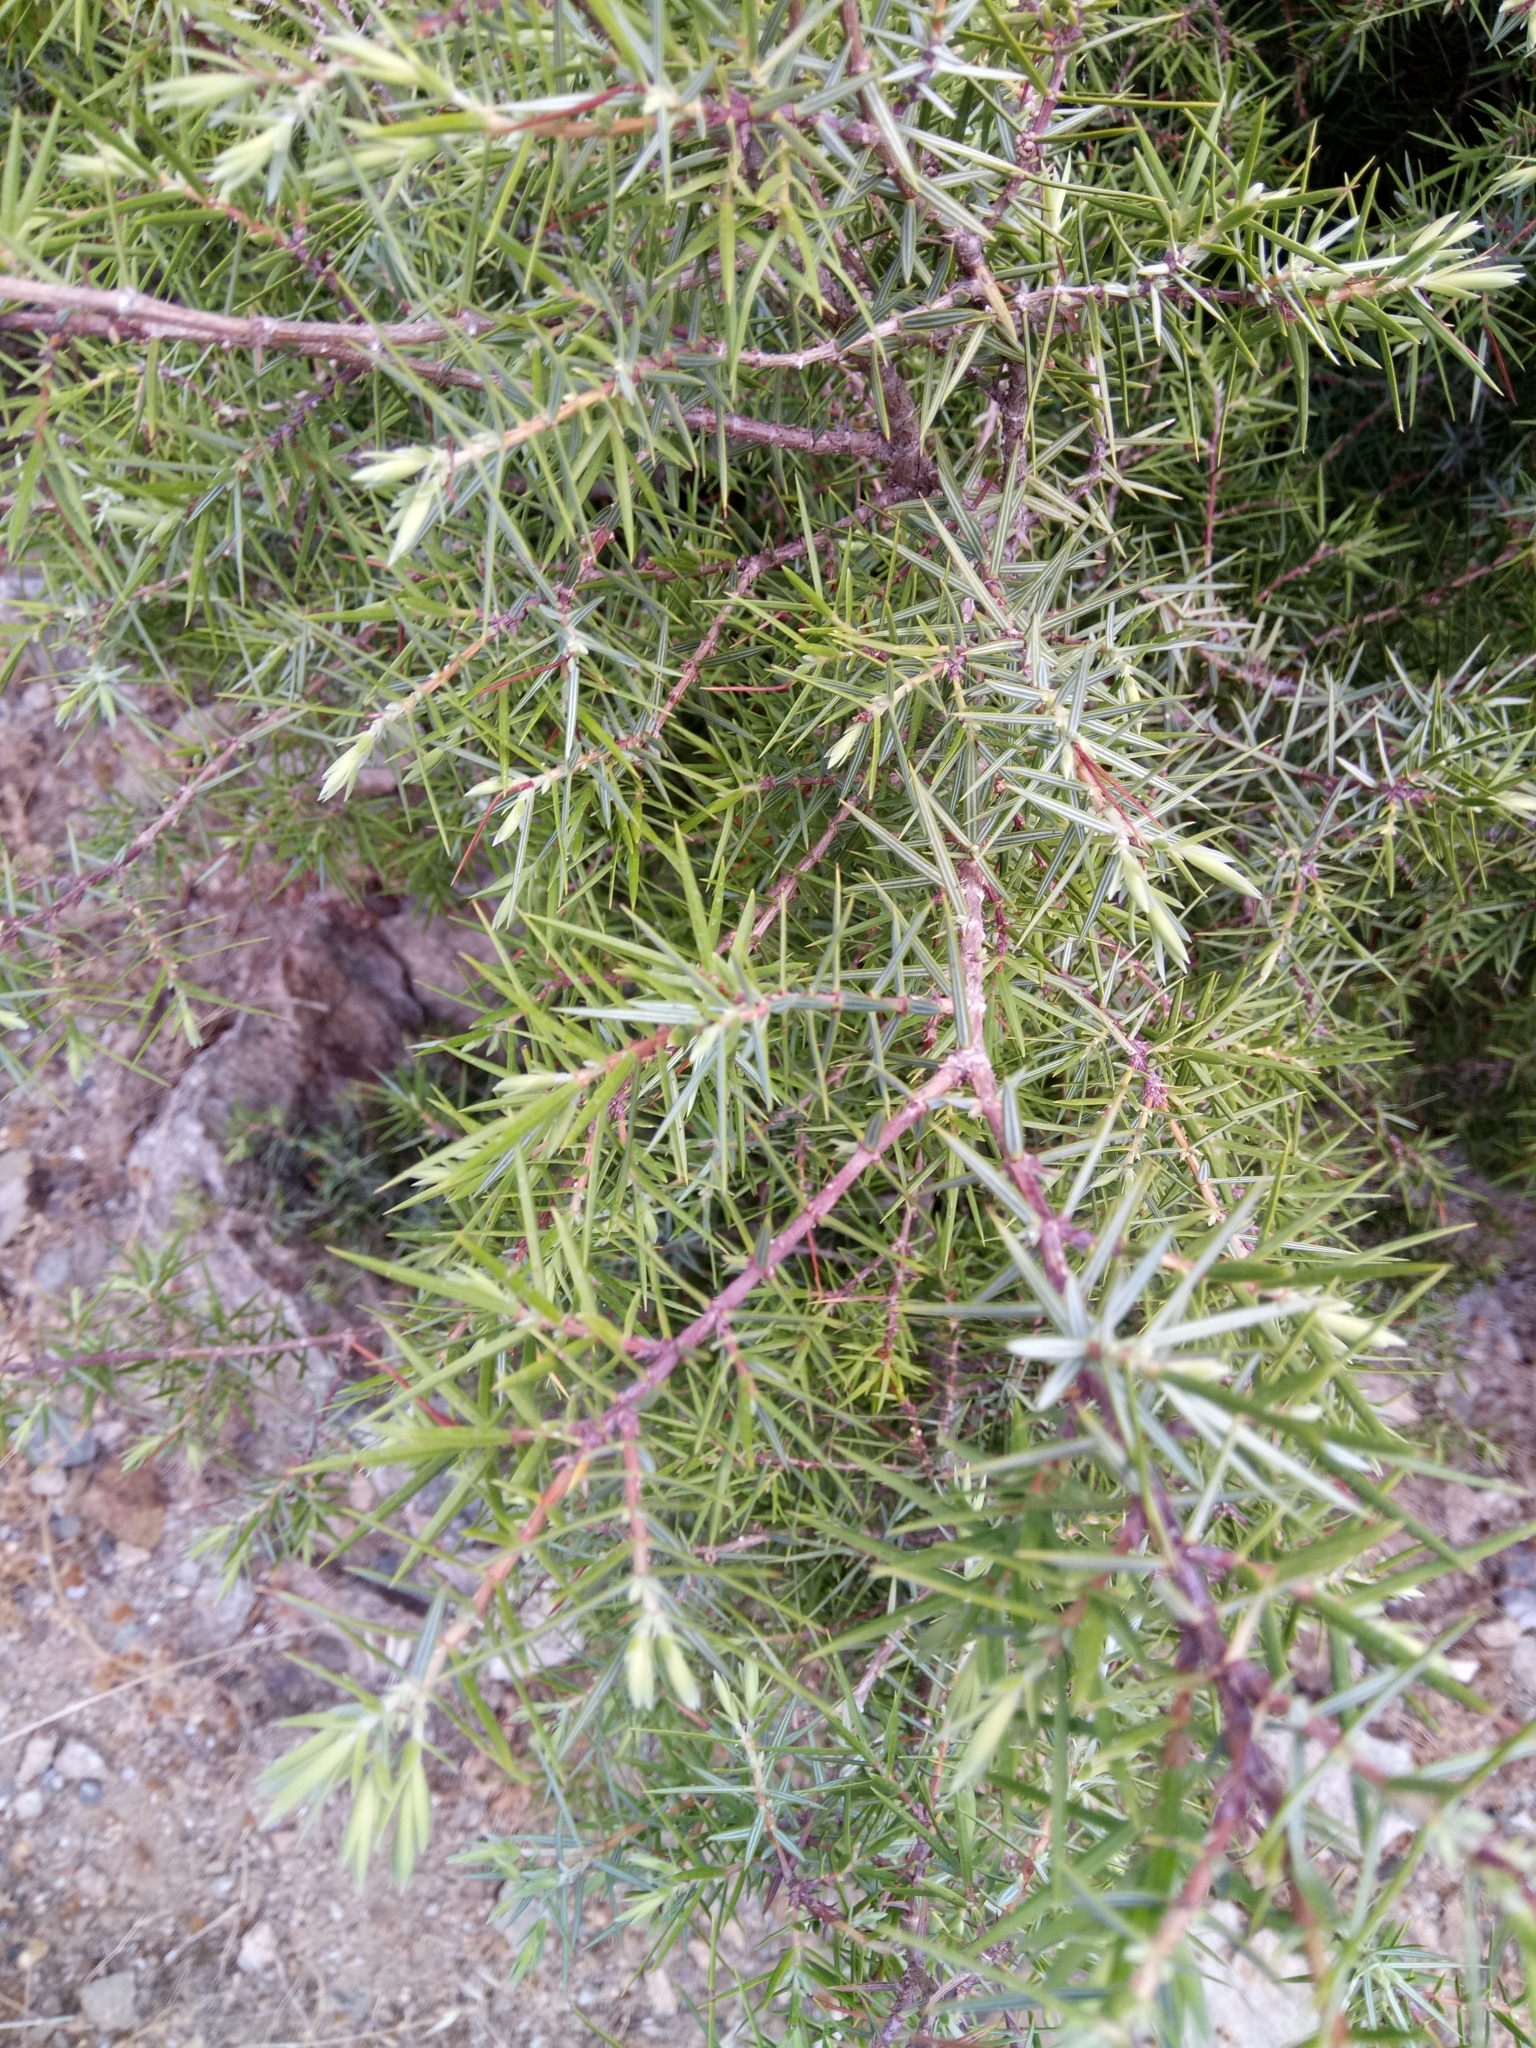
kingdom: Plantae
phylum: Tracheophyta
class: Pinopsida
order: Pinales
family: Cupressaceae
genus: Juniperus
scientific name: Juniperus oxycedrus
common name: Prickly juniper
